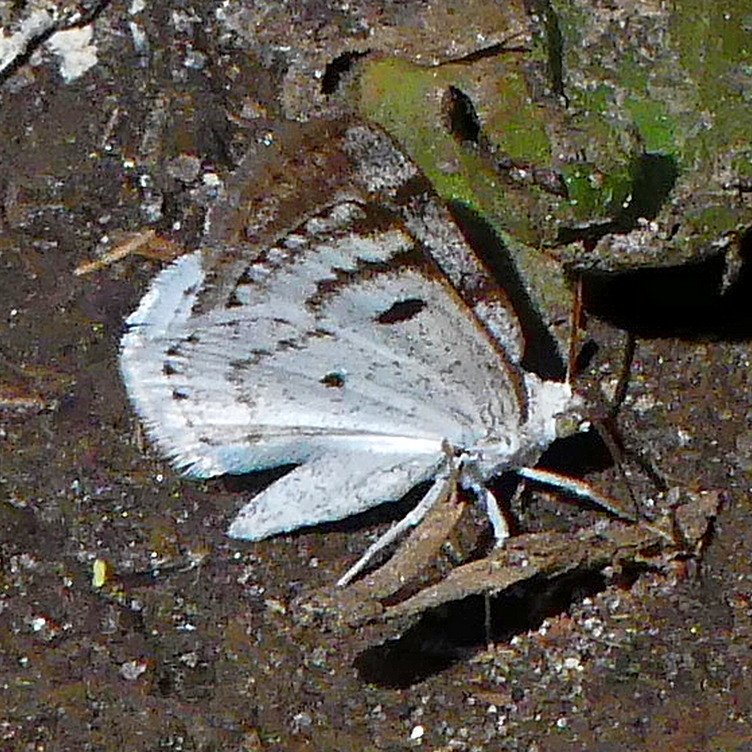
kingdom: Animalia
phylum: Arthropoda
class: Insecta
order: Lepidoptera
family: Geometridae
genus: Lomographa
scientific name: Lomographa semiclarata
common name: Bluish spring moth
